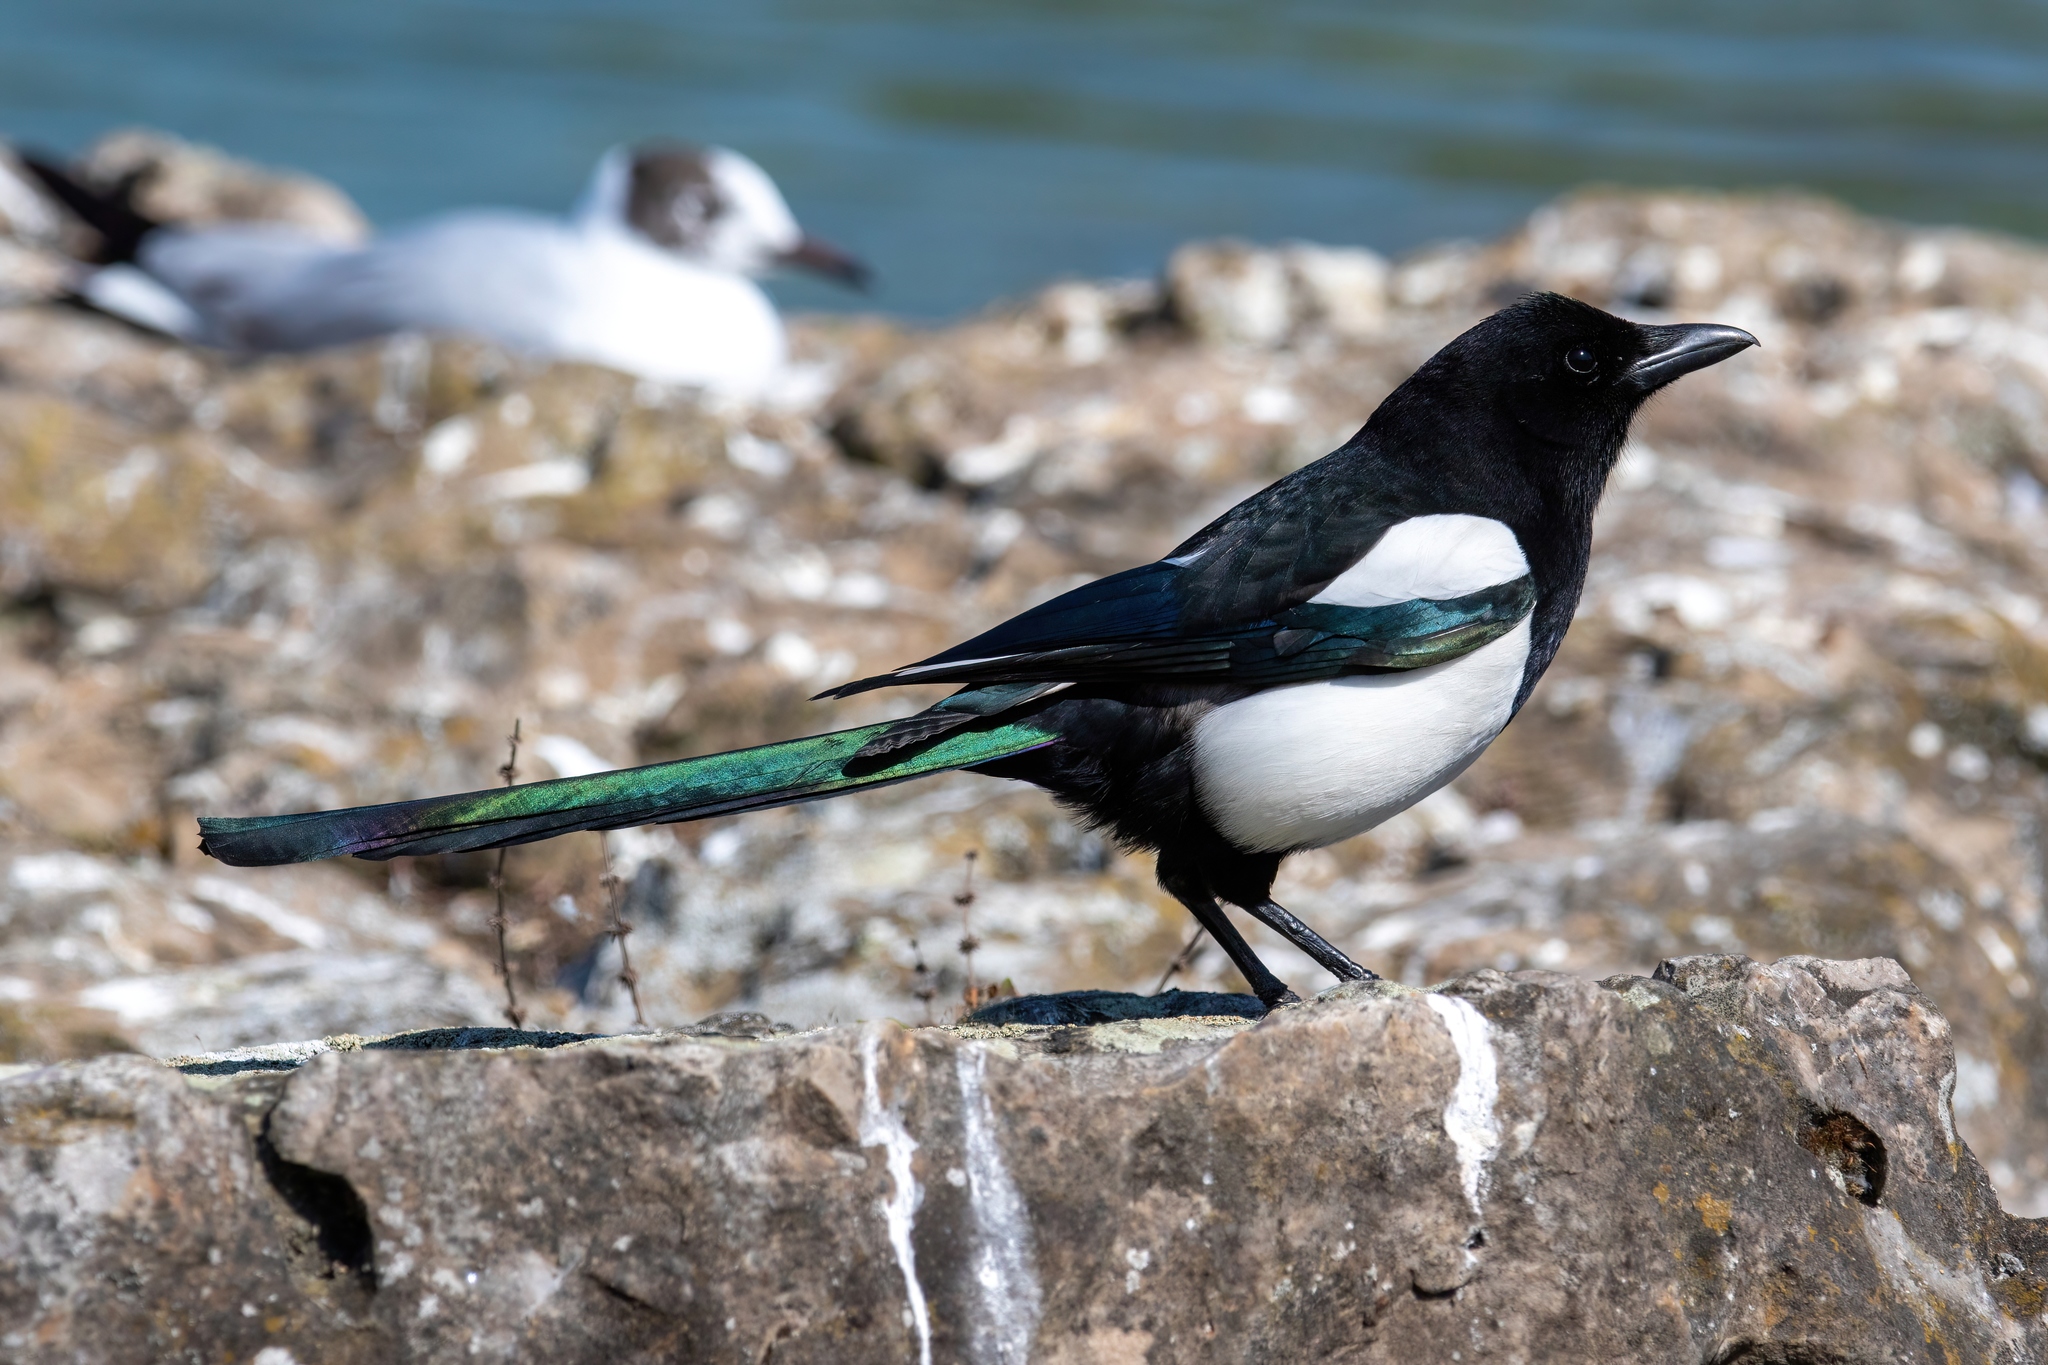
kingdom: Animalia
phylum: Chordata
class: Aves
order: Charadriiformes
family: Laridae
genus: Chroicocephalus
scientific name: Chroicocephalus ridibundus
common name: Black-headed gull
